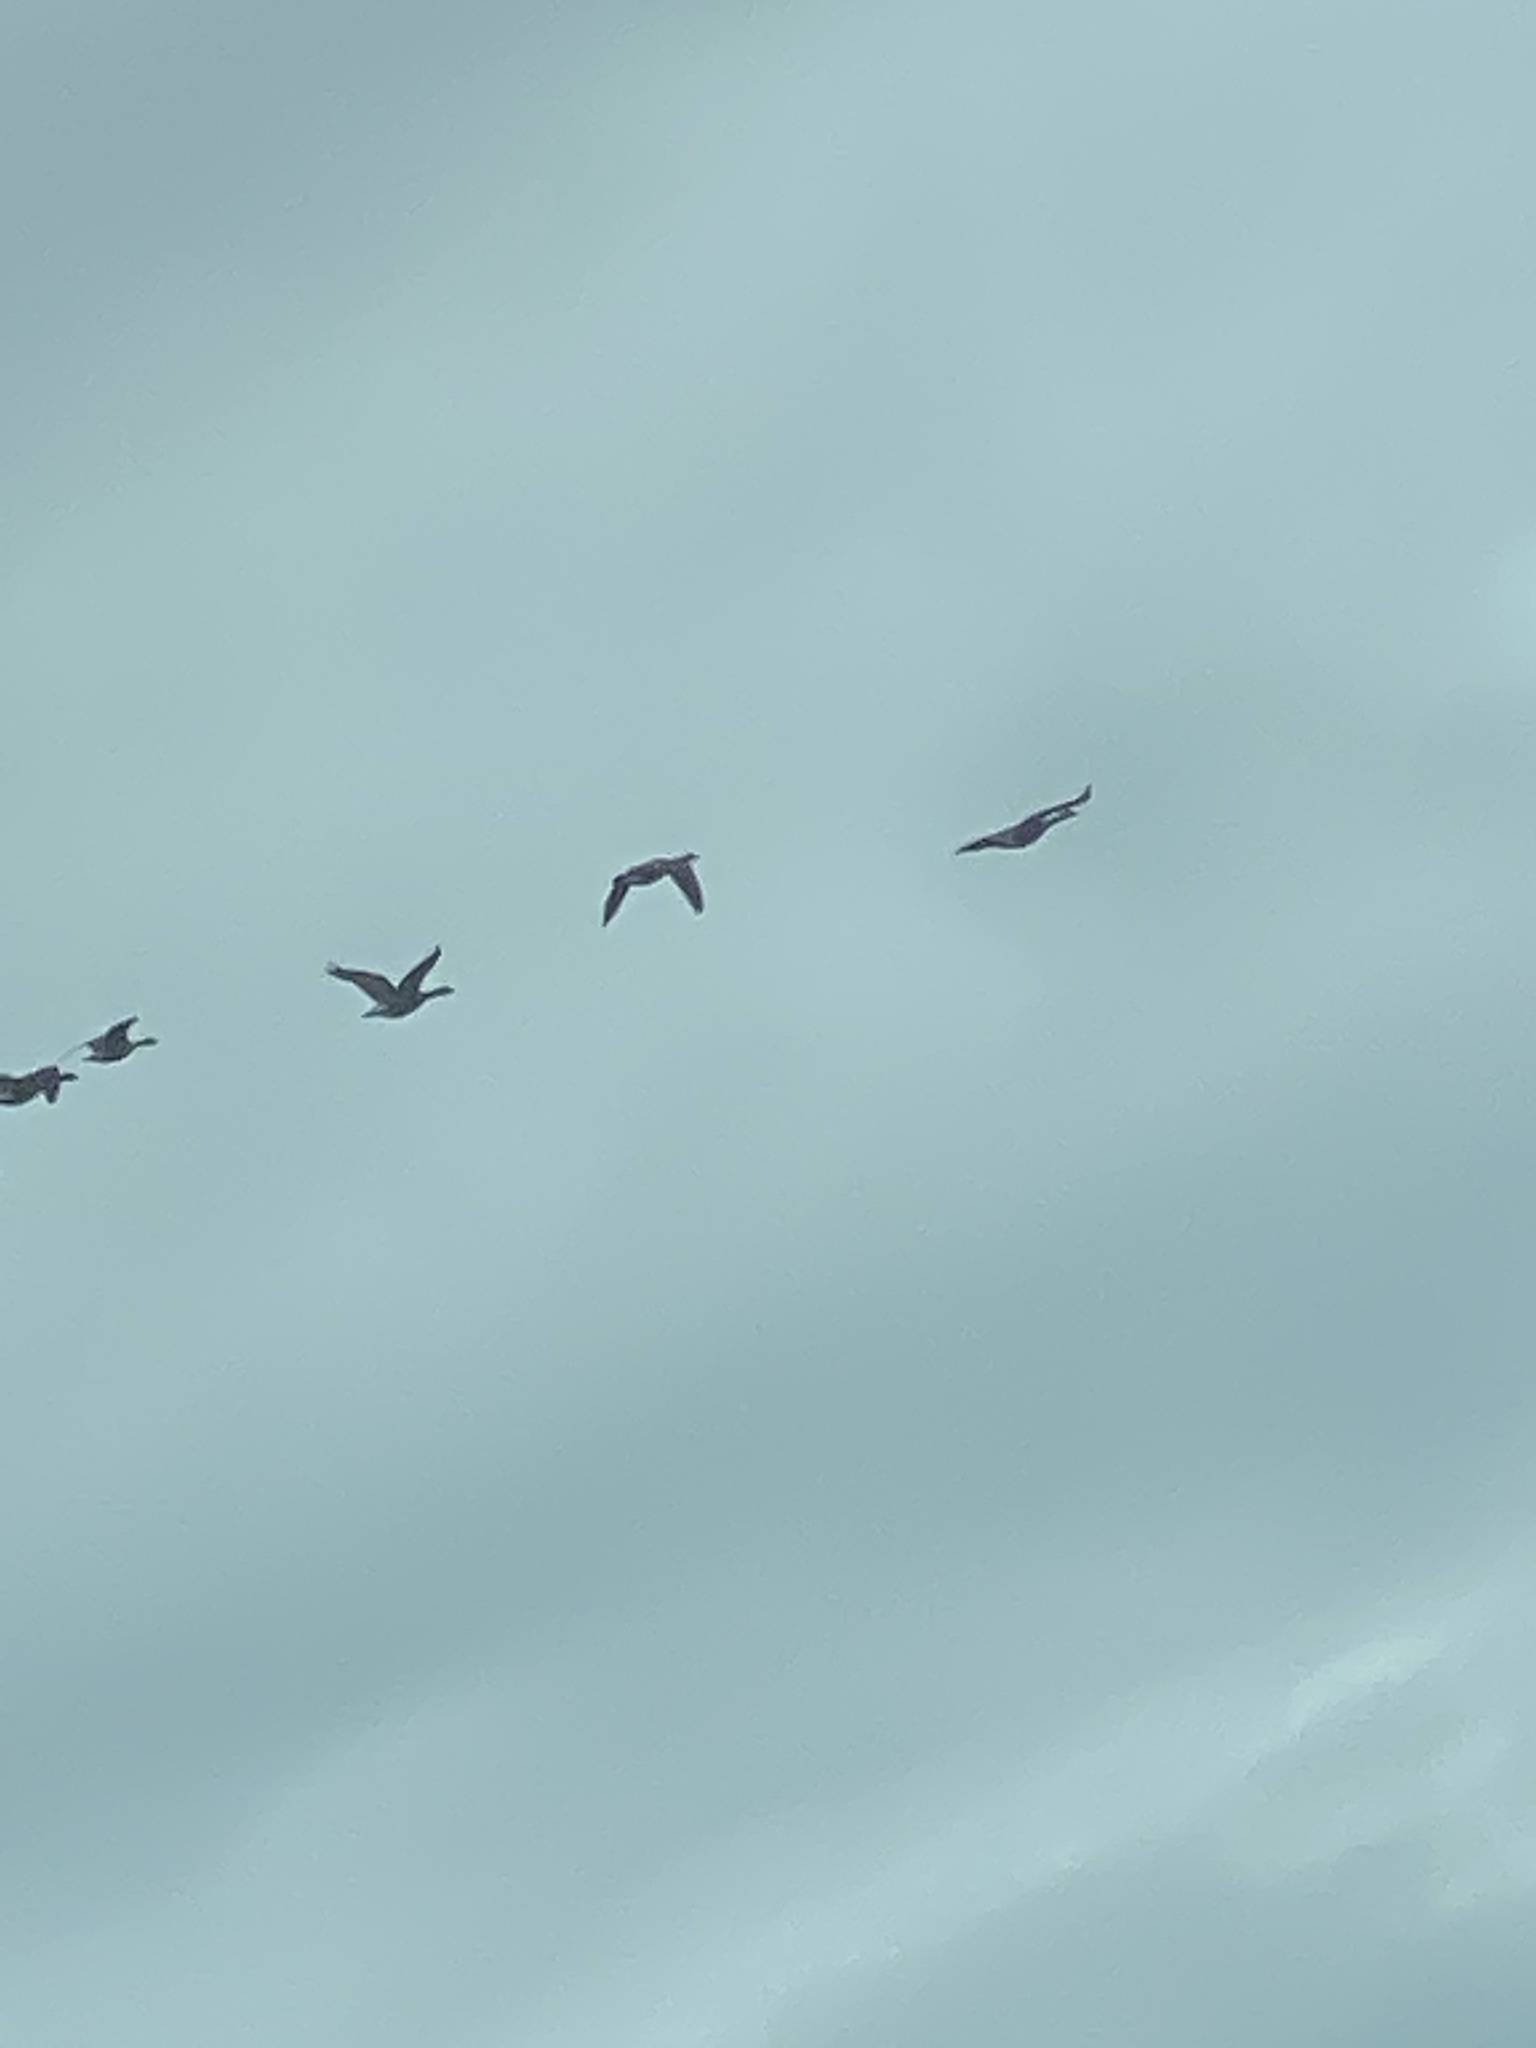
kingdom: Animalia
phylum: Chordata
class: Aves
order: Anseriformes
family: Anatidae
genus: Branta
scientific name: Branta canadensis
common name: Canada goose
